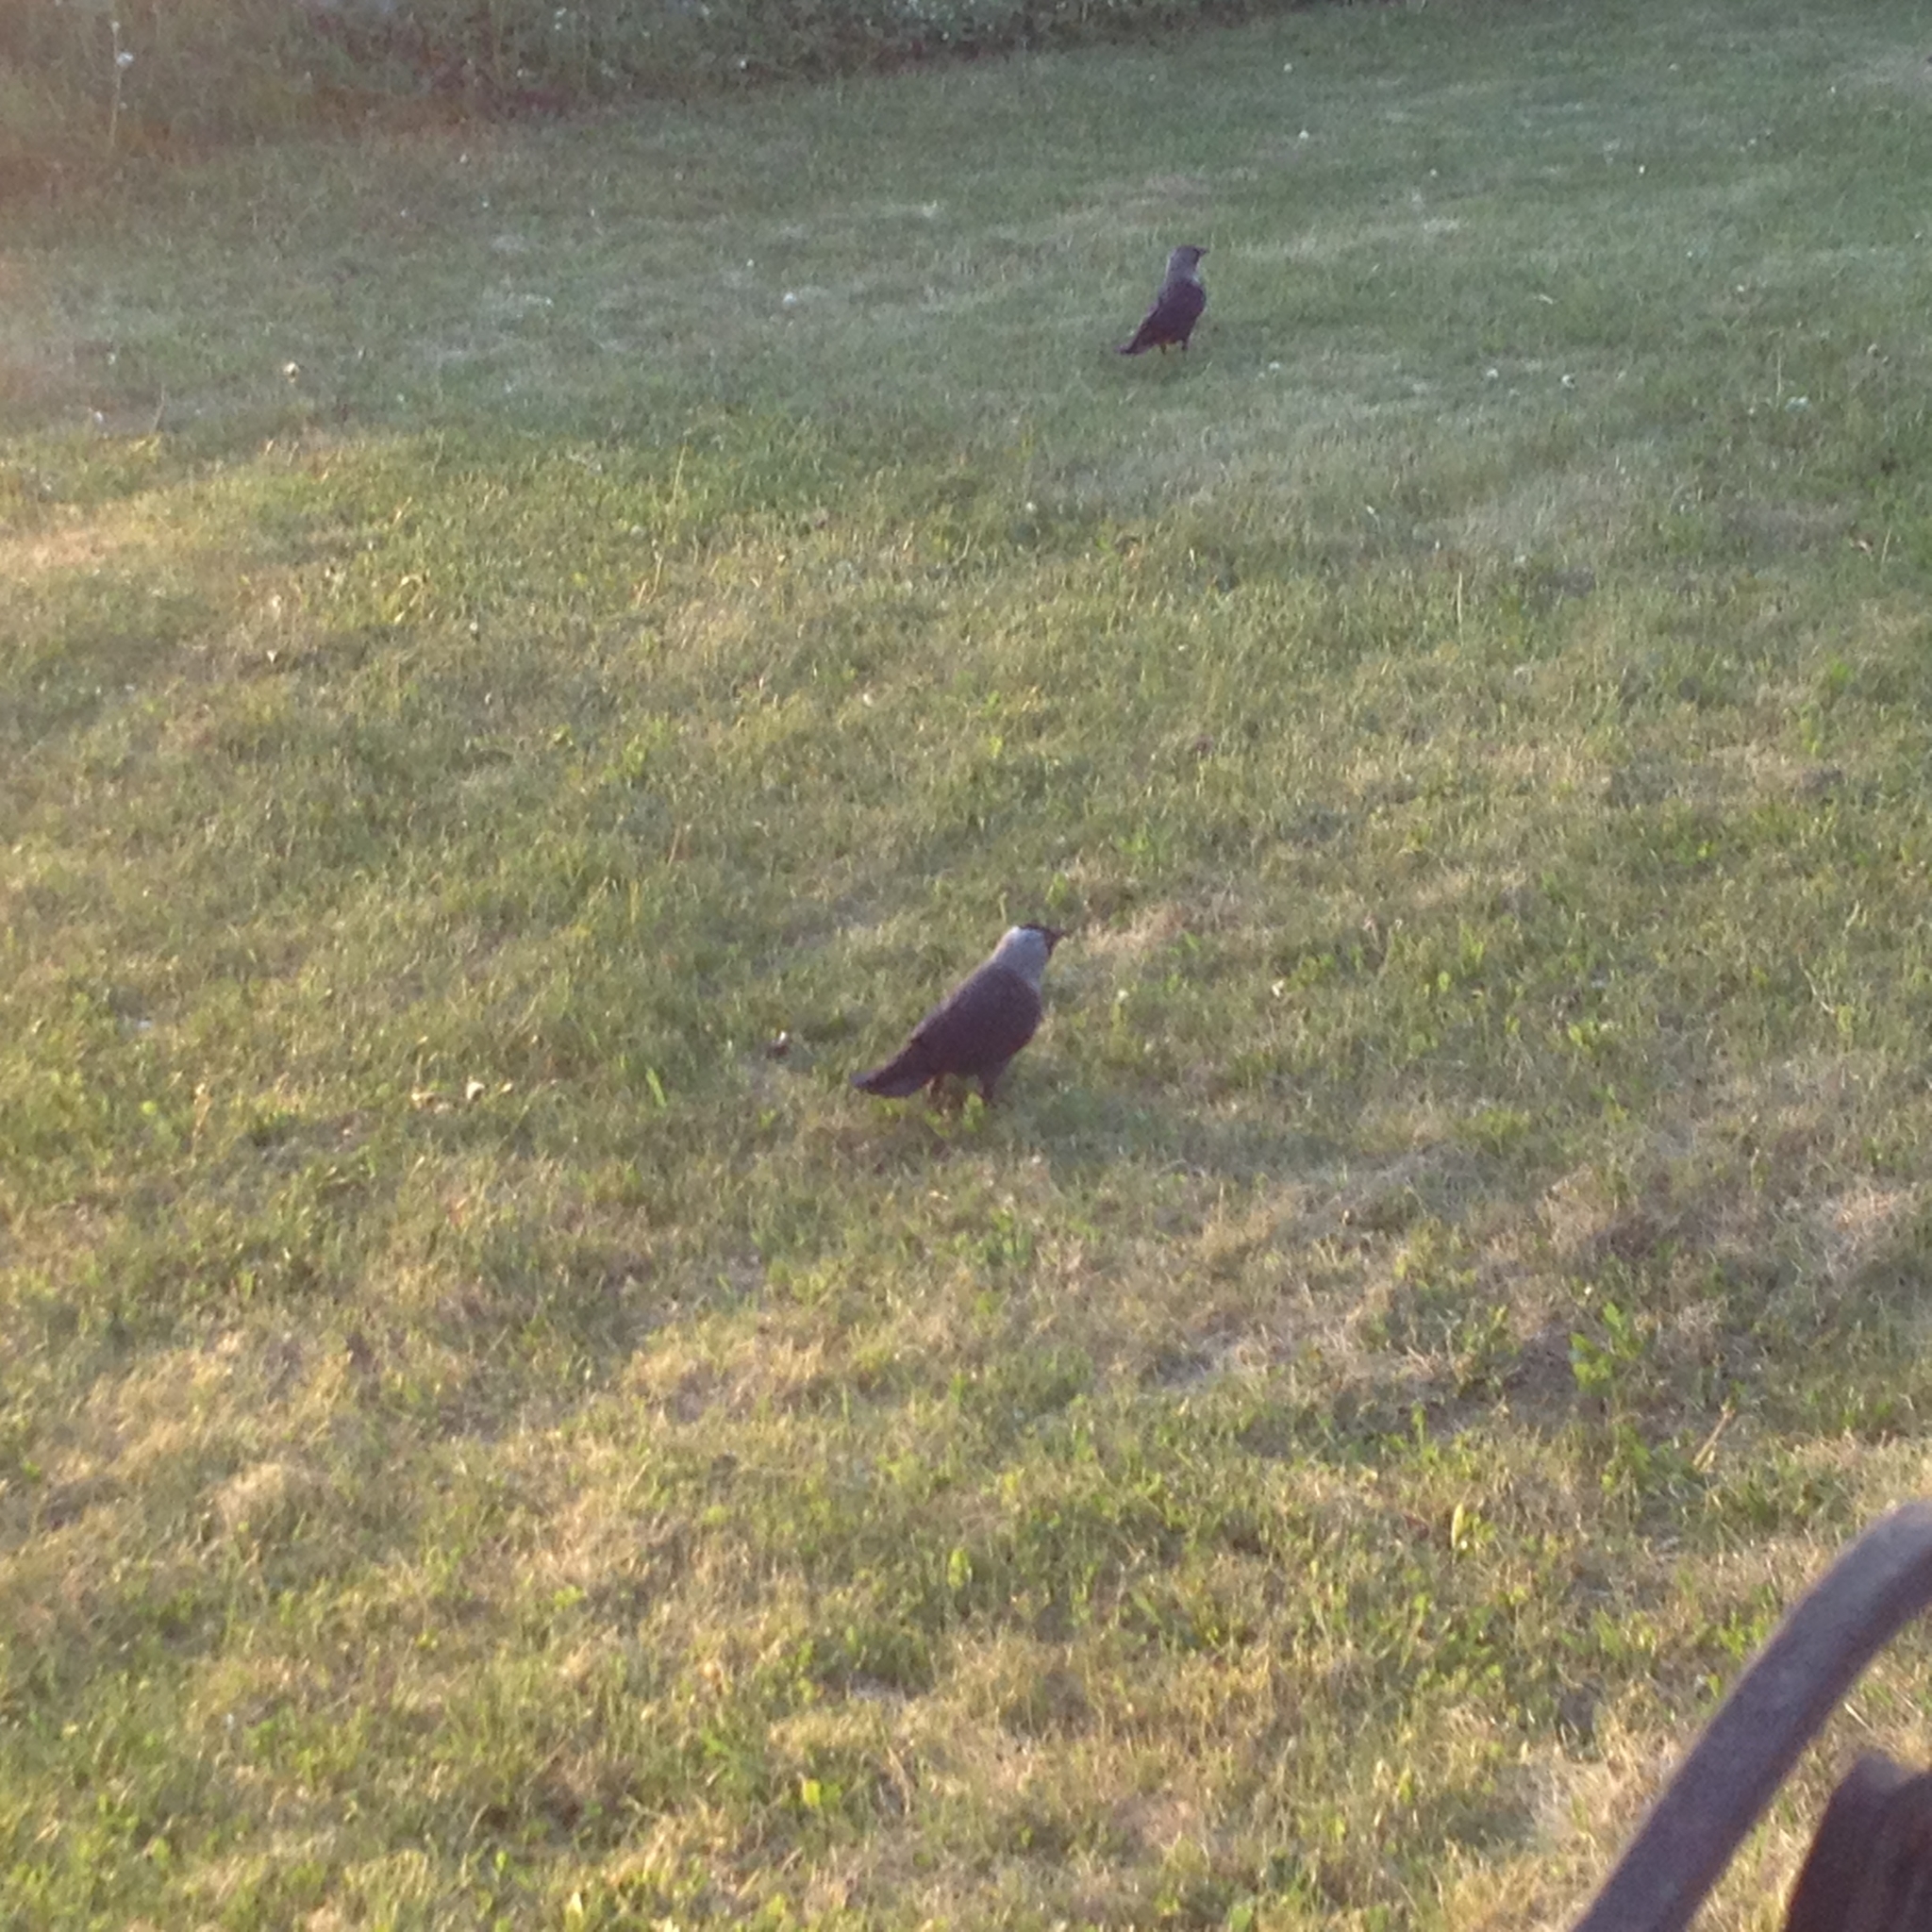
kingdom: Animalia
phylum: Chordata
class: Aves
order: Passeriformes
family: Corvidae
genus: Coloeus
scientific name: Coloeus monedula
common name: Western jackdaw
